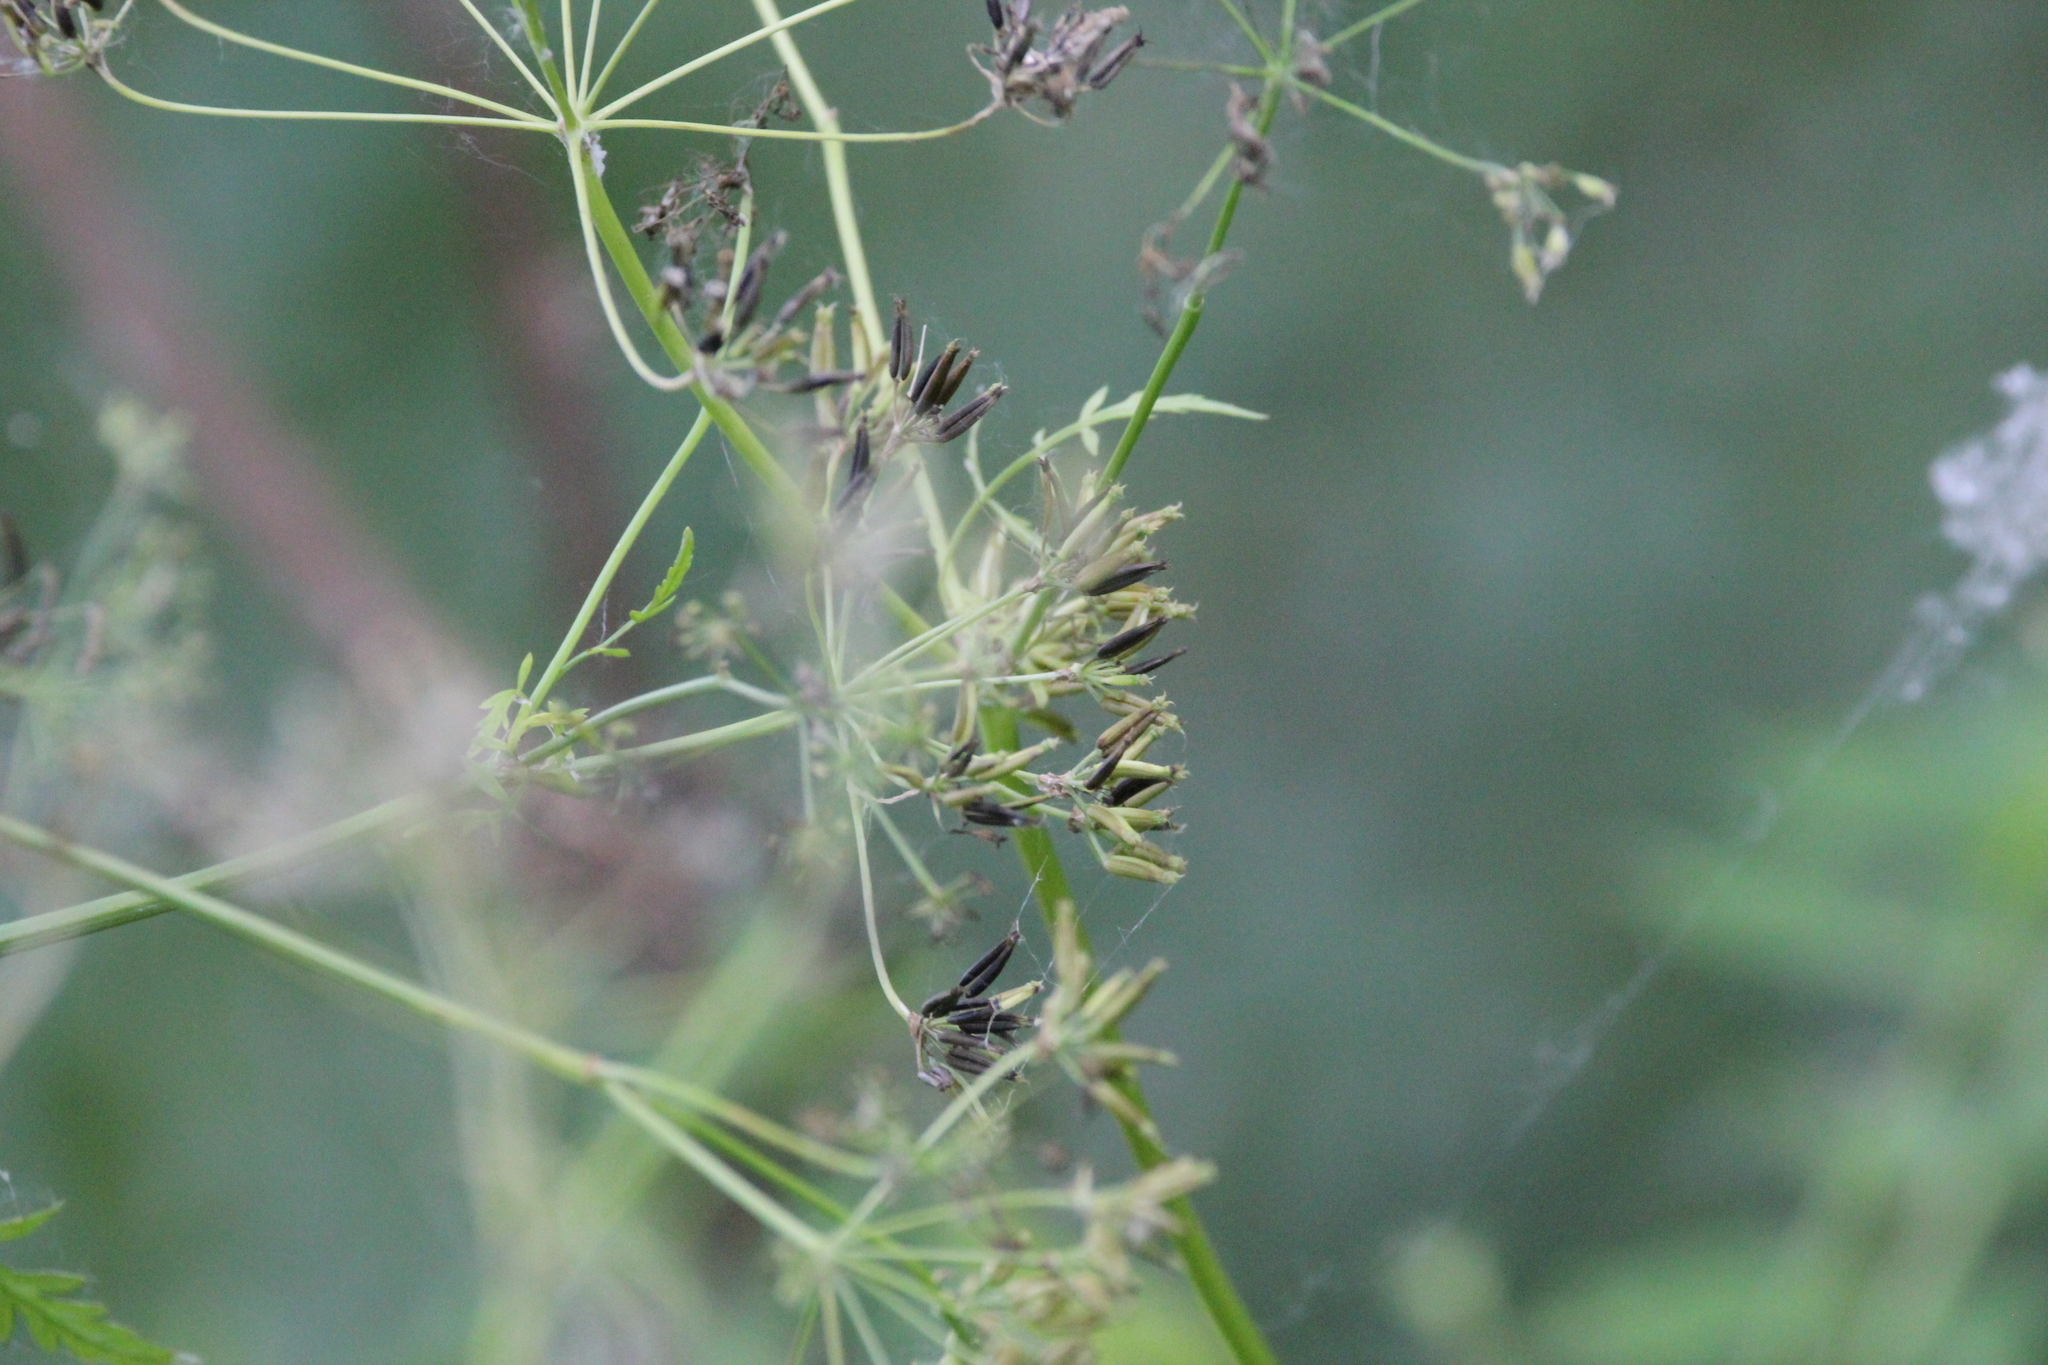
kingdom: Plantae
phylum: Tracheophyta
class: Magnoliopsida
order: Apiales
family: Apiaceae
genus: Anthriscus
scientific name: Anthriscus sylvestris
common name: Cow parsley
